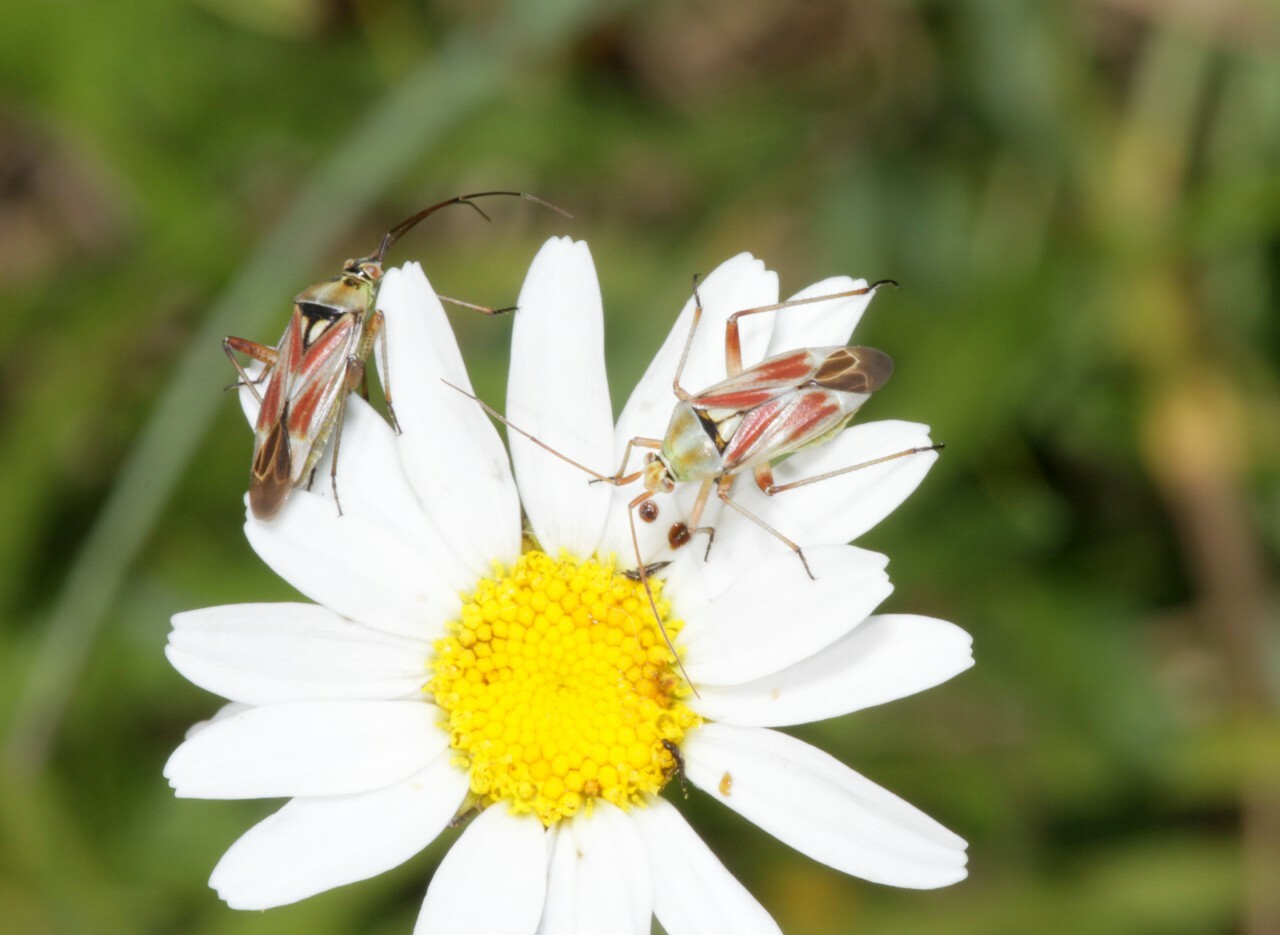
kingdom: Animalia
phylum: Arthropoda
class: Insecta
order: Hemiptera
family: Miridae
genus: Calocoris
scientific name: Calocoris roseomaculatus
